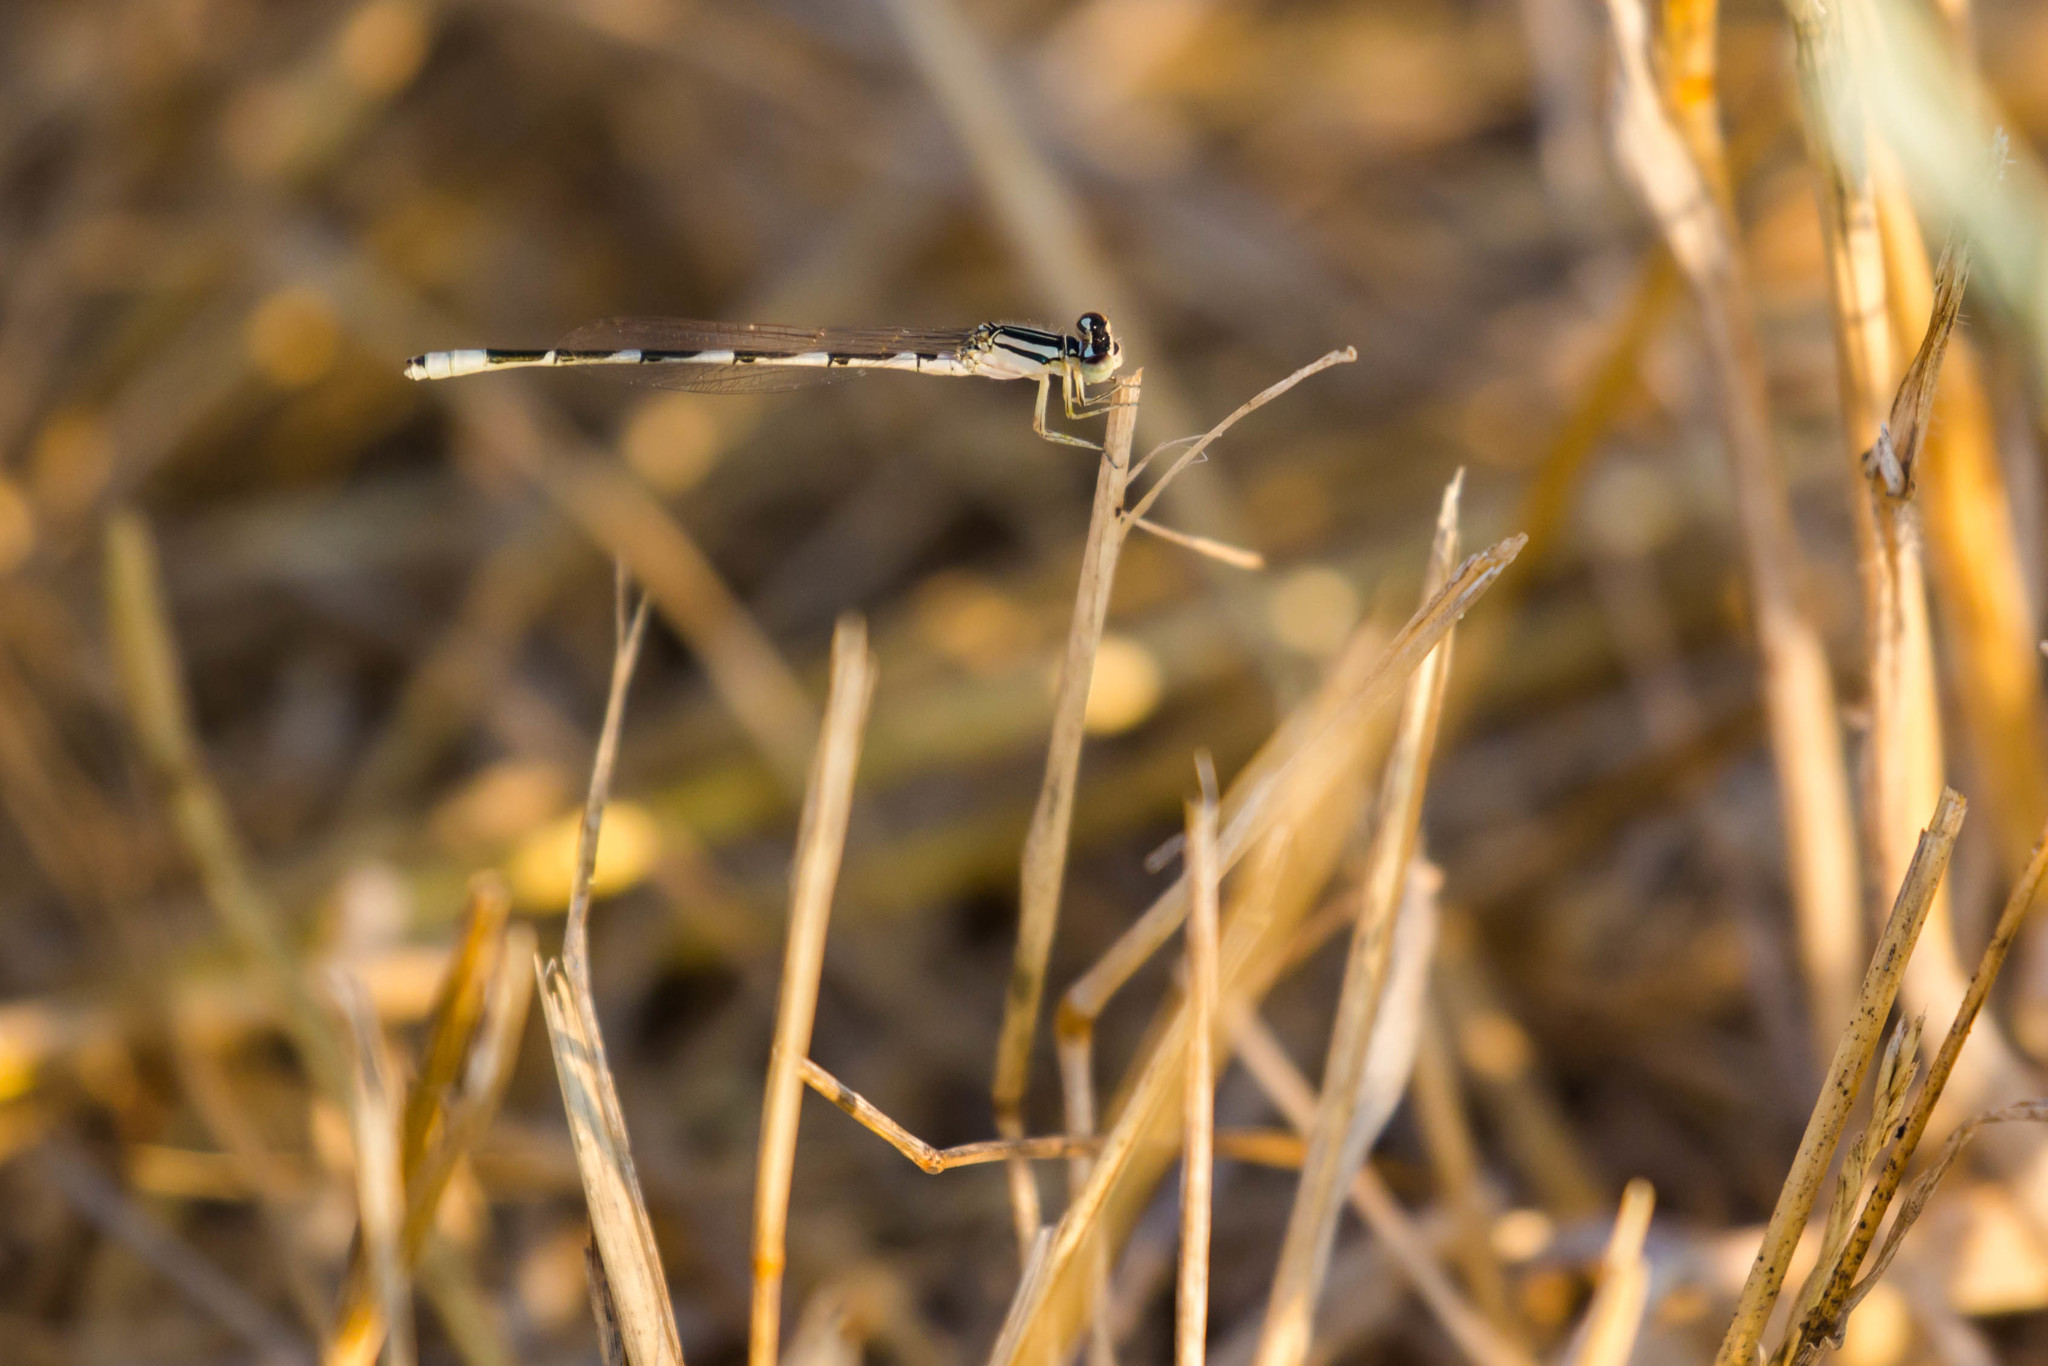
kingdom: Animalia
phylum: Arthropoda
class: Insecta
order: Odonata
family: Coenagrionidae
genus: Enallagma
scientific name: Enallagma carunculatum
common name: Tule bluet
